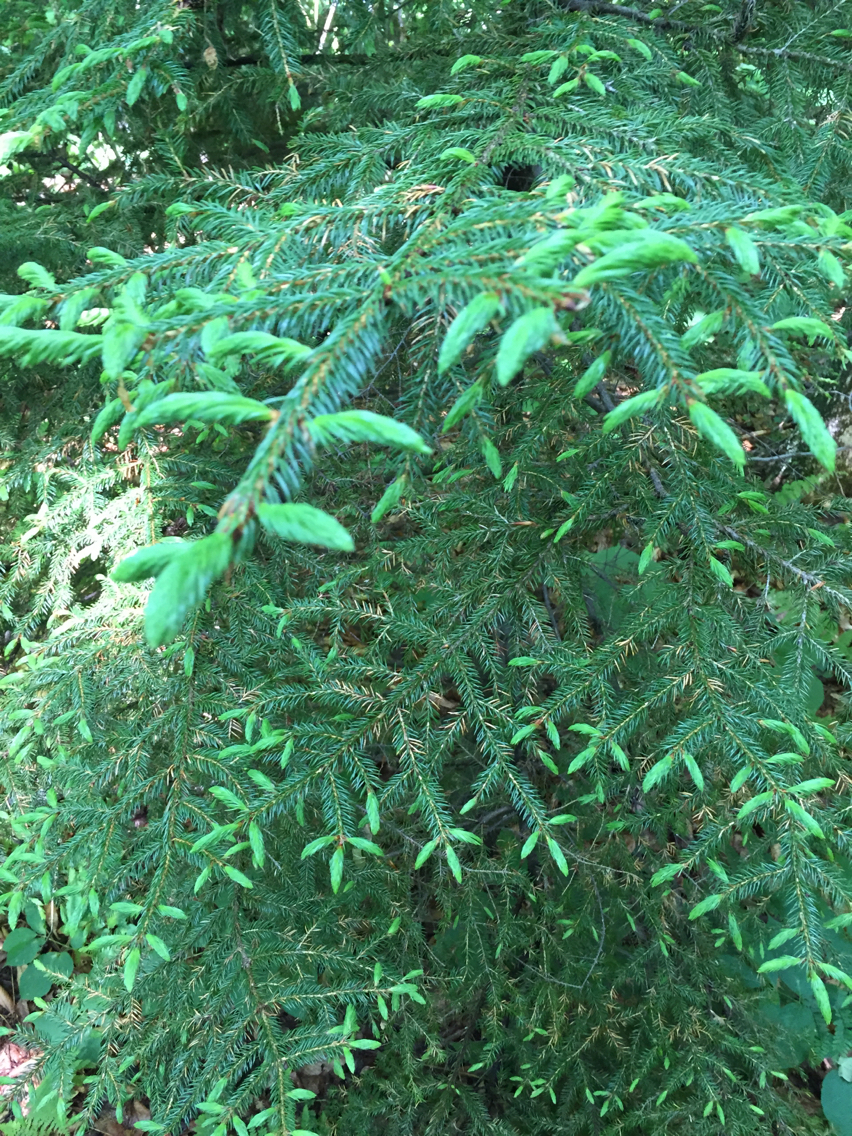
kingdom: Plantae
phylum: Tracheophyta
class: Pinopsida
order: Pinales
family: Pinaceae
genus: Picea
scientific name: Picea rubens
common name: Red spruce
